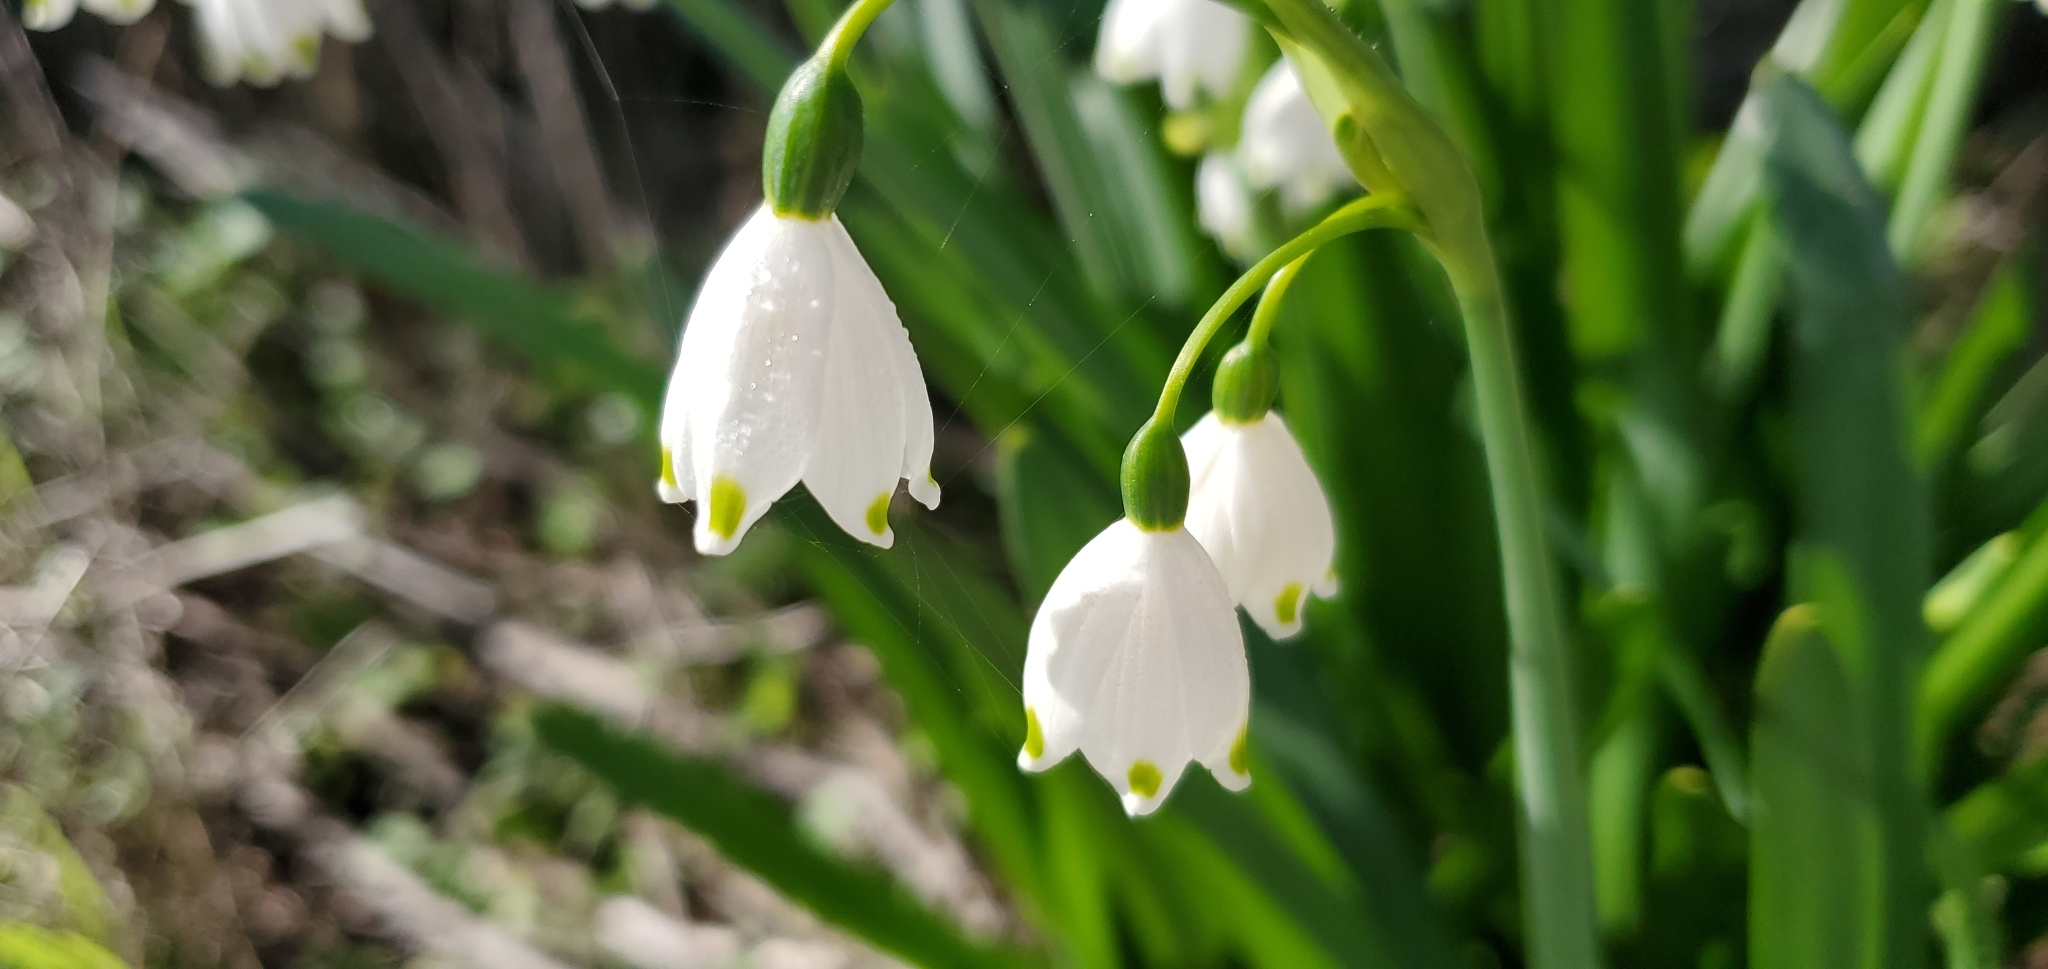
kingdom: Plantae
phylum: Tracheophyta
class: Liliopsida
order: Asparagales
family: Amaryllidaceae
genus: Leucojum
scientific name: Leucojum aestivum
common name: Summer snowflake
